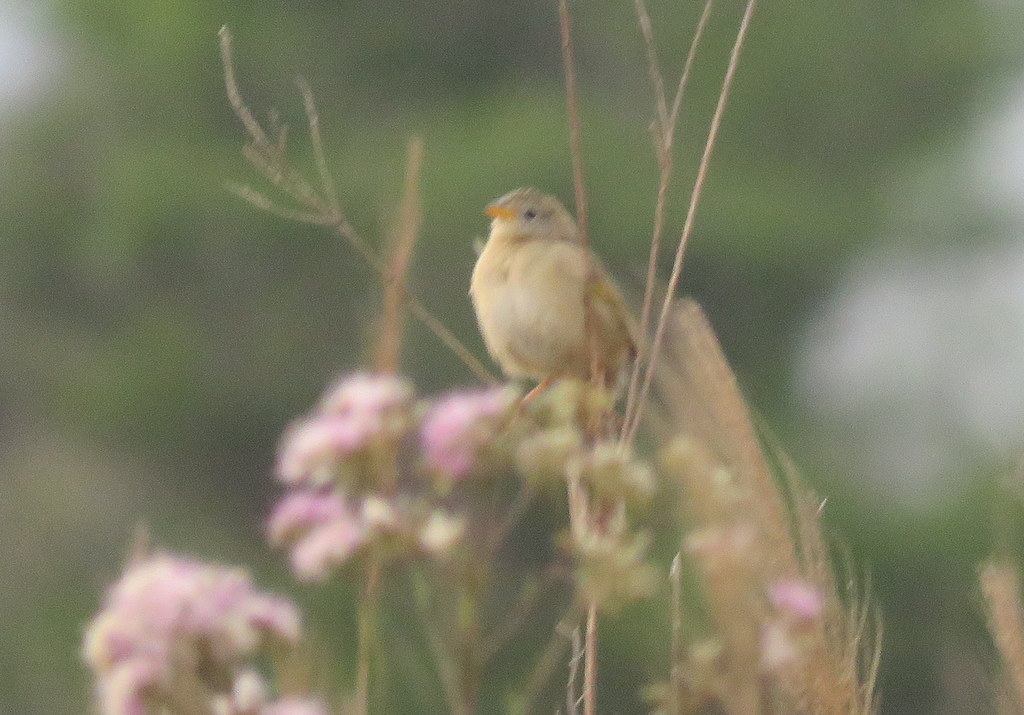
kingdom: Animalia
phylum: Chordata
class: Aves
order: Passeriformes
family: Thraupidae
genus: Emberizoides
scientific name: Emberizoides herbicola
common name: Wedge-tailed grass-finch
